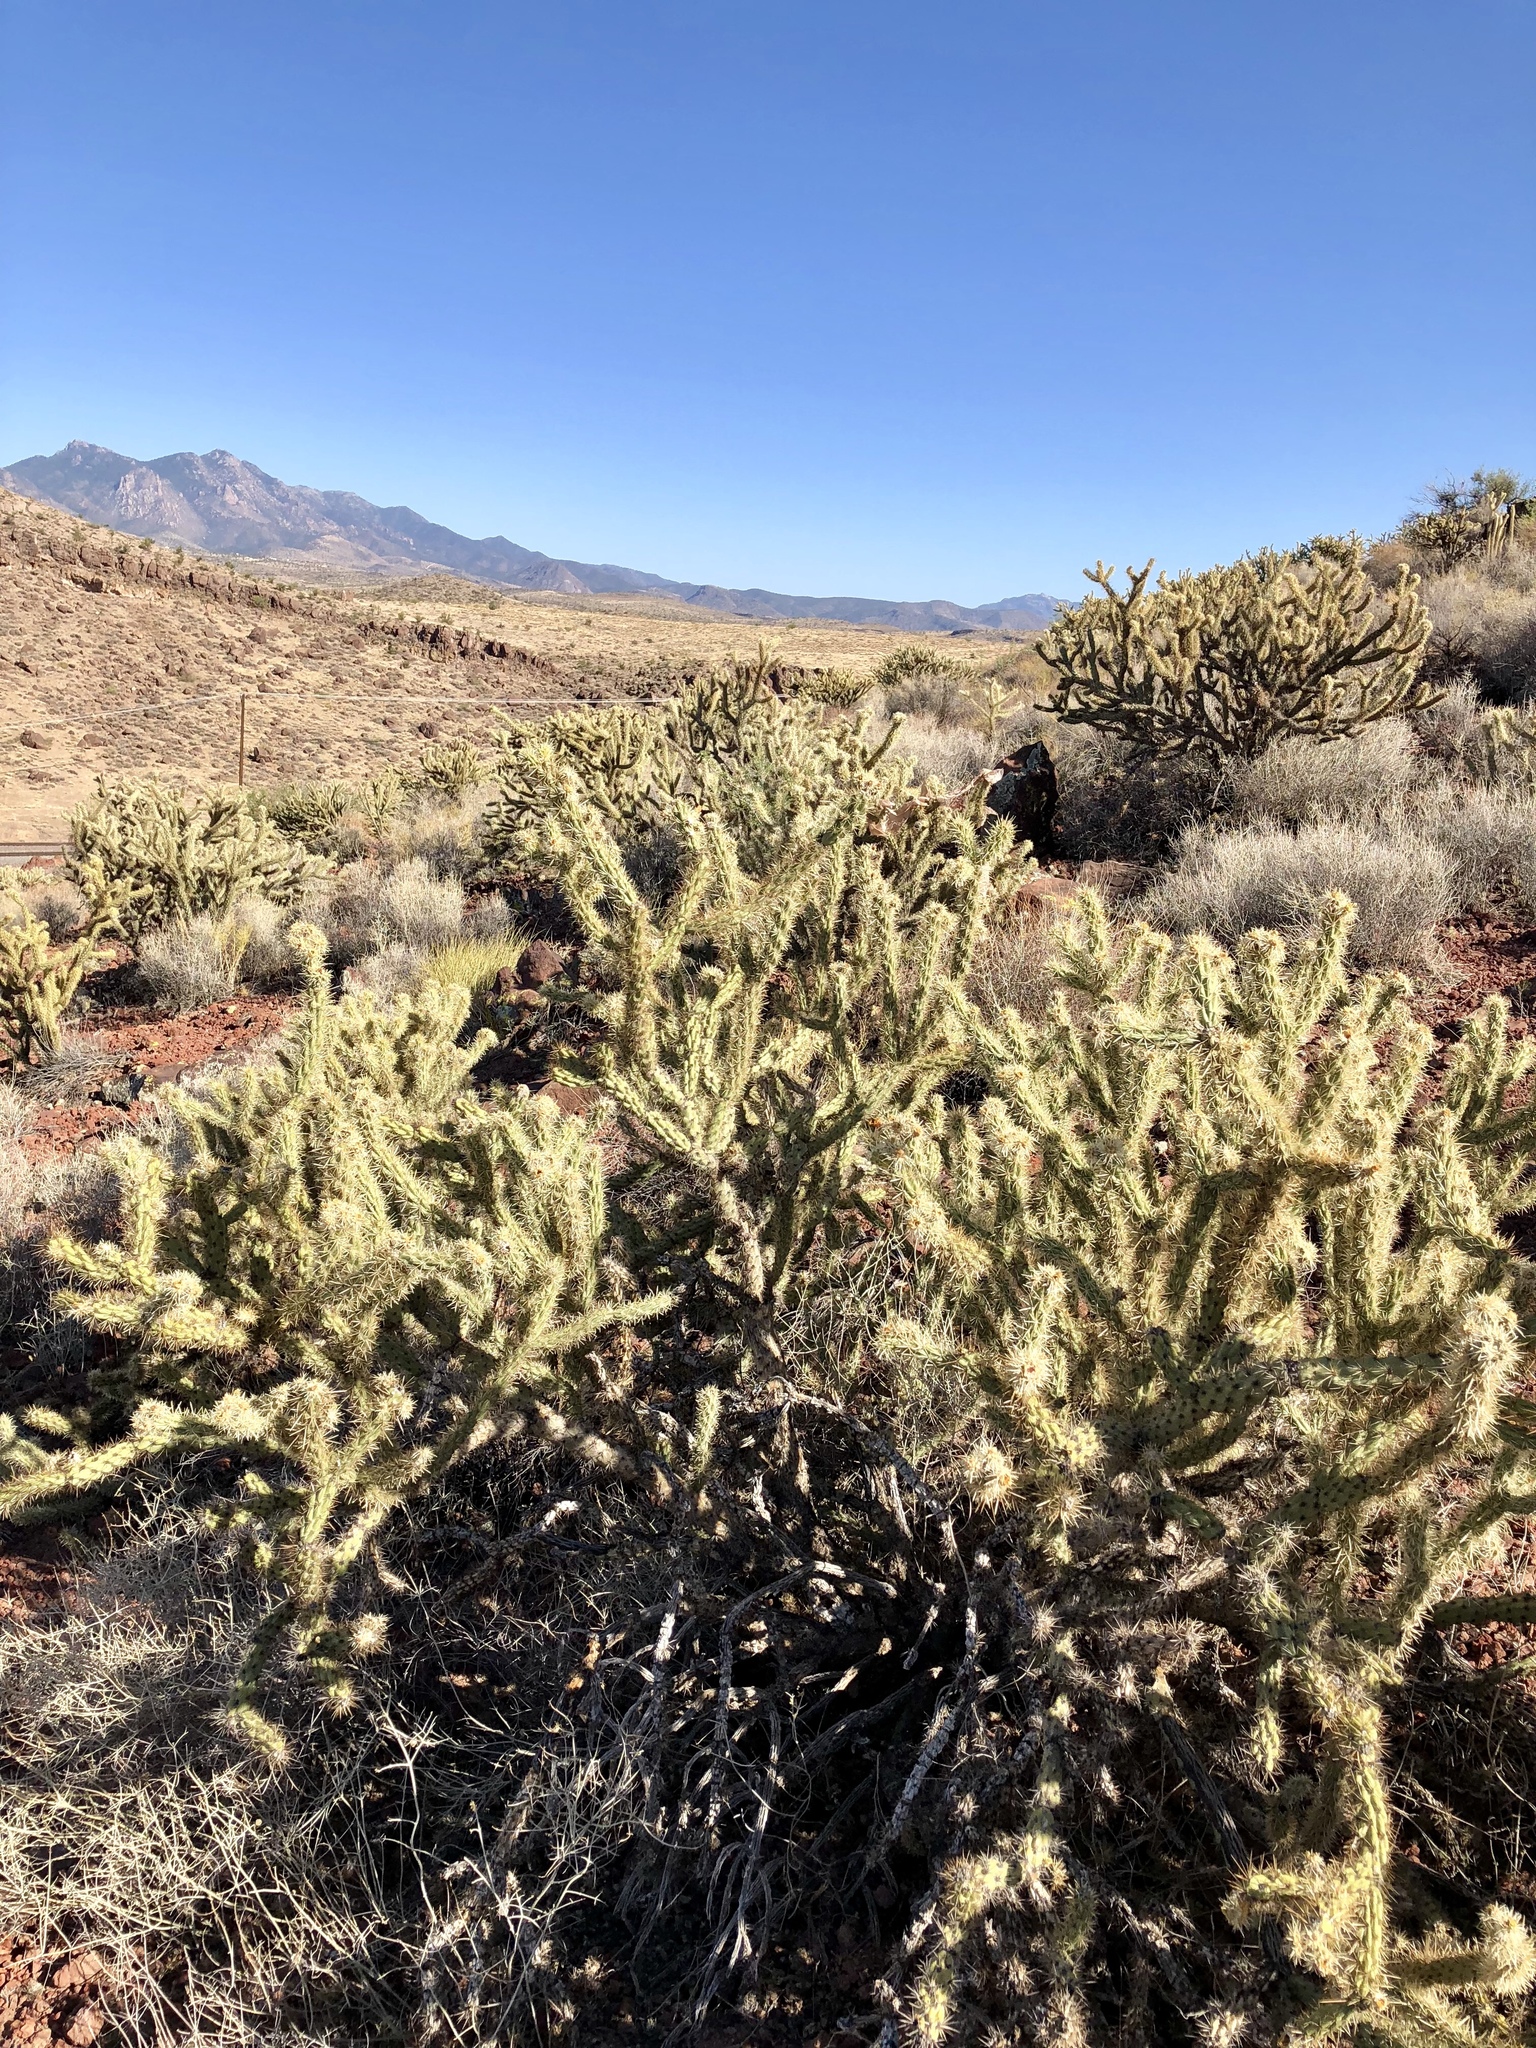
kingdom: Plantae
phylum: Tracheophyta
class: Magnoliopsida
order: Caryophyllales
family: Cactaceae
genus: Cylindropuntia
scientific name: Cylindropuntia acanthocarpa
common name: Buckhorn cholla
